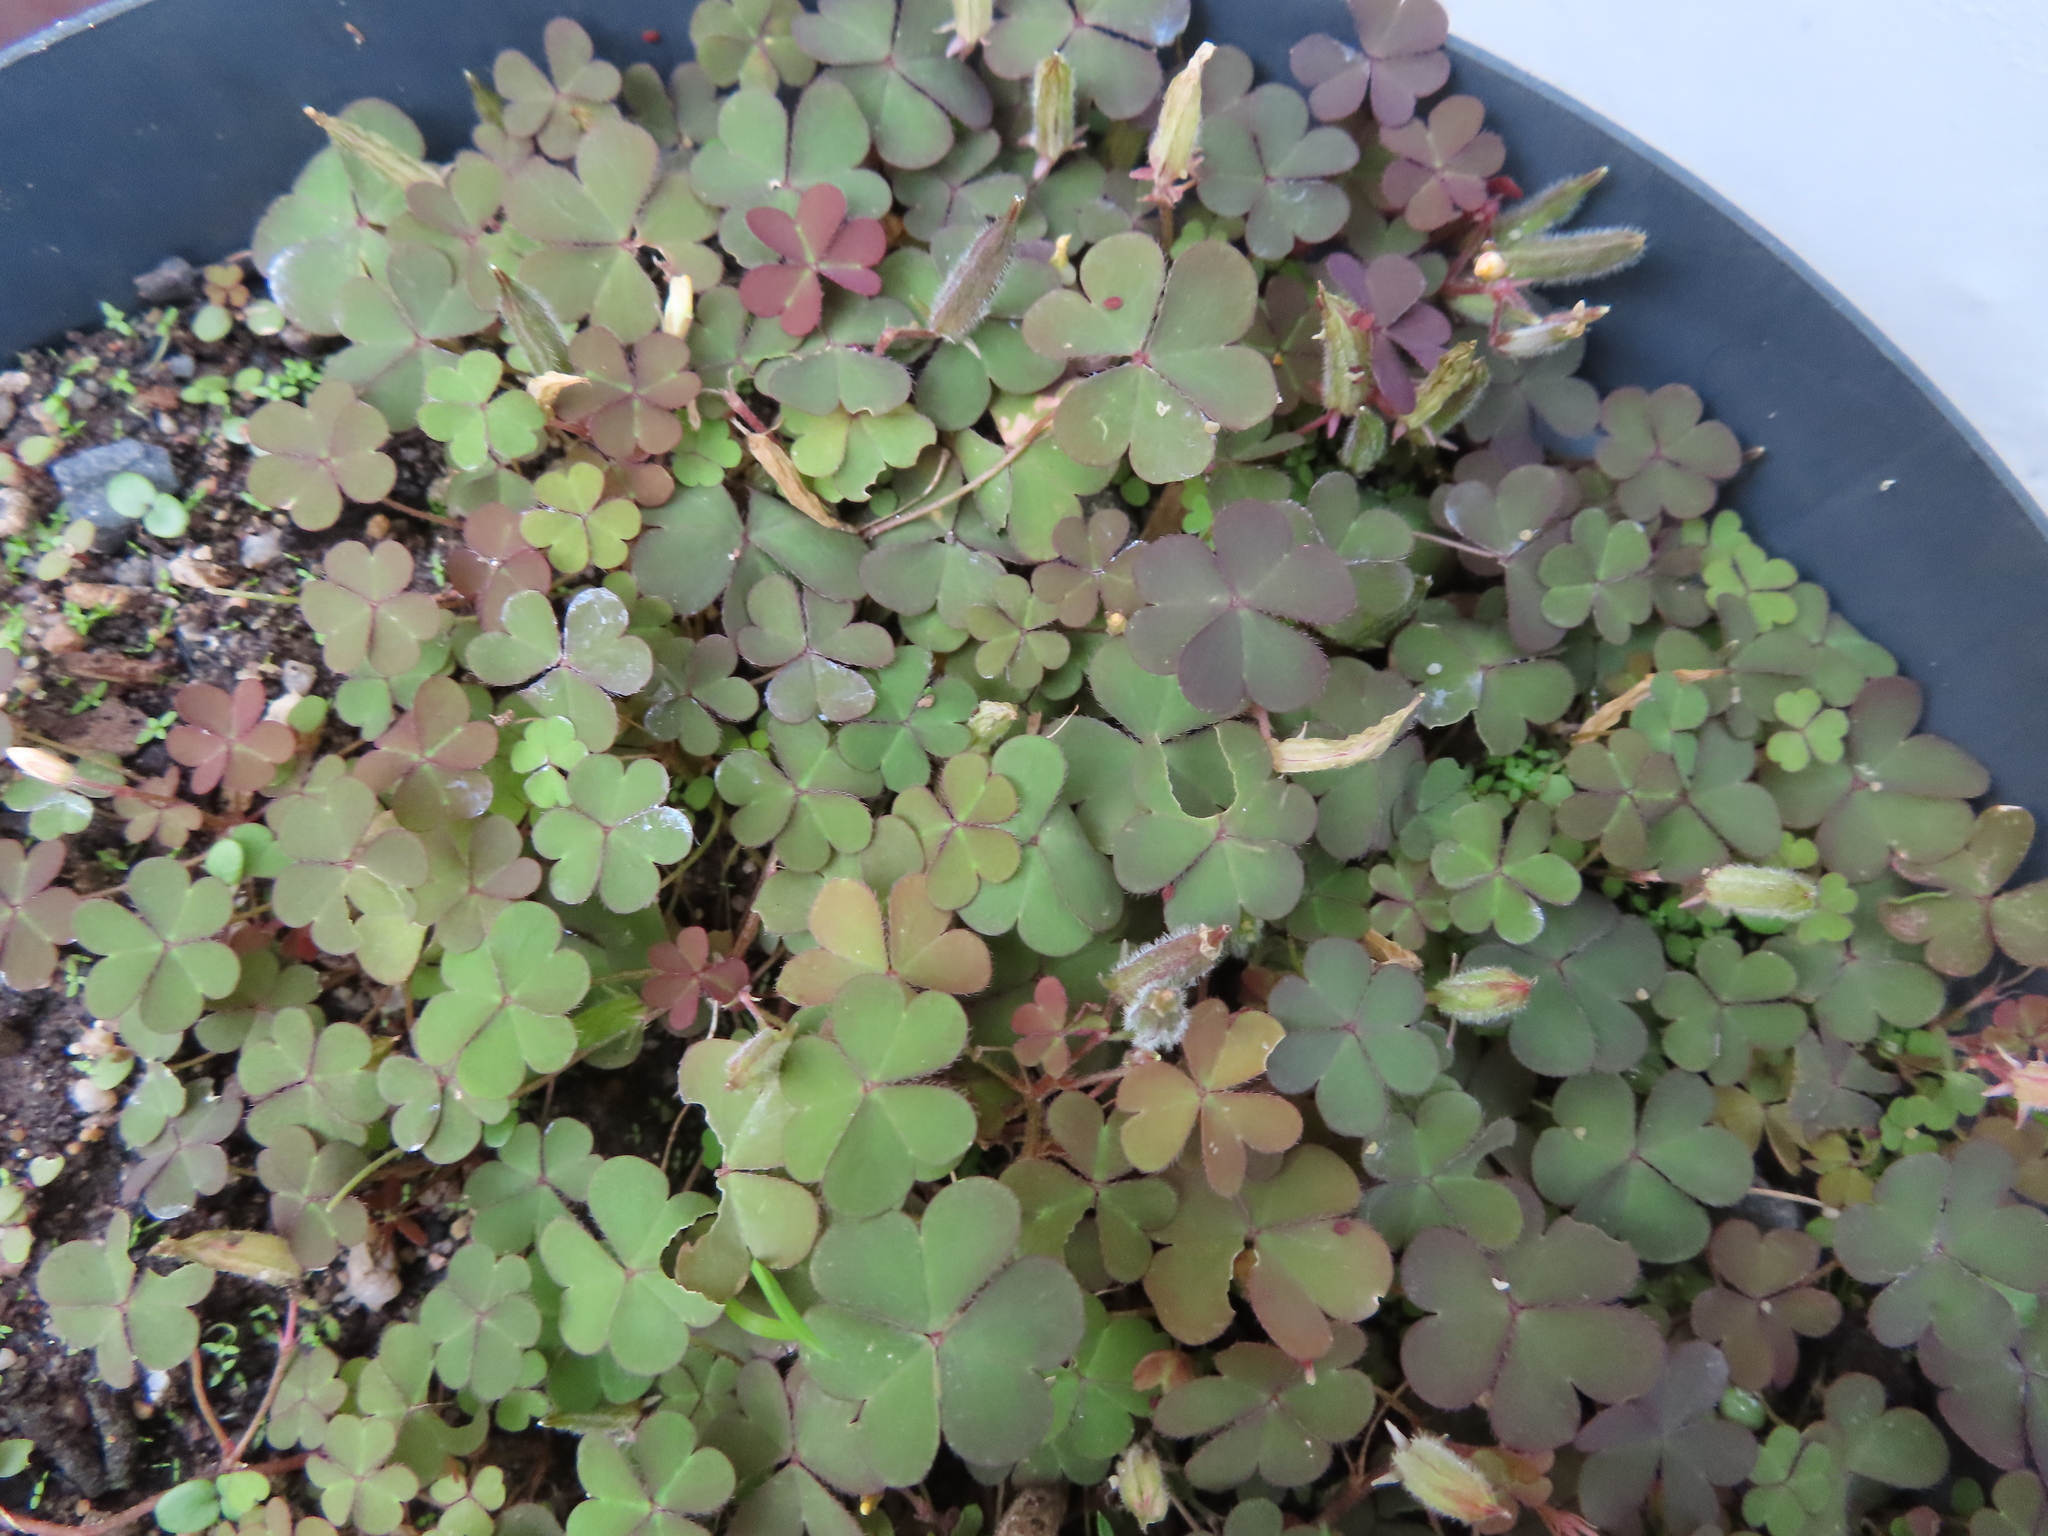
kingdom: Plantae
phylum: Tracheophyta
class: Magnoliopsida
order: Oxalidales
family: Oxalidaceae
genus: Oxalis
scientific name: Oxalis corniculata
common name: Procumbent yellow-sorrel
